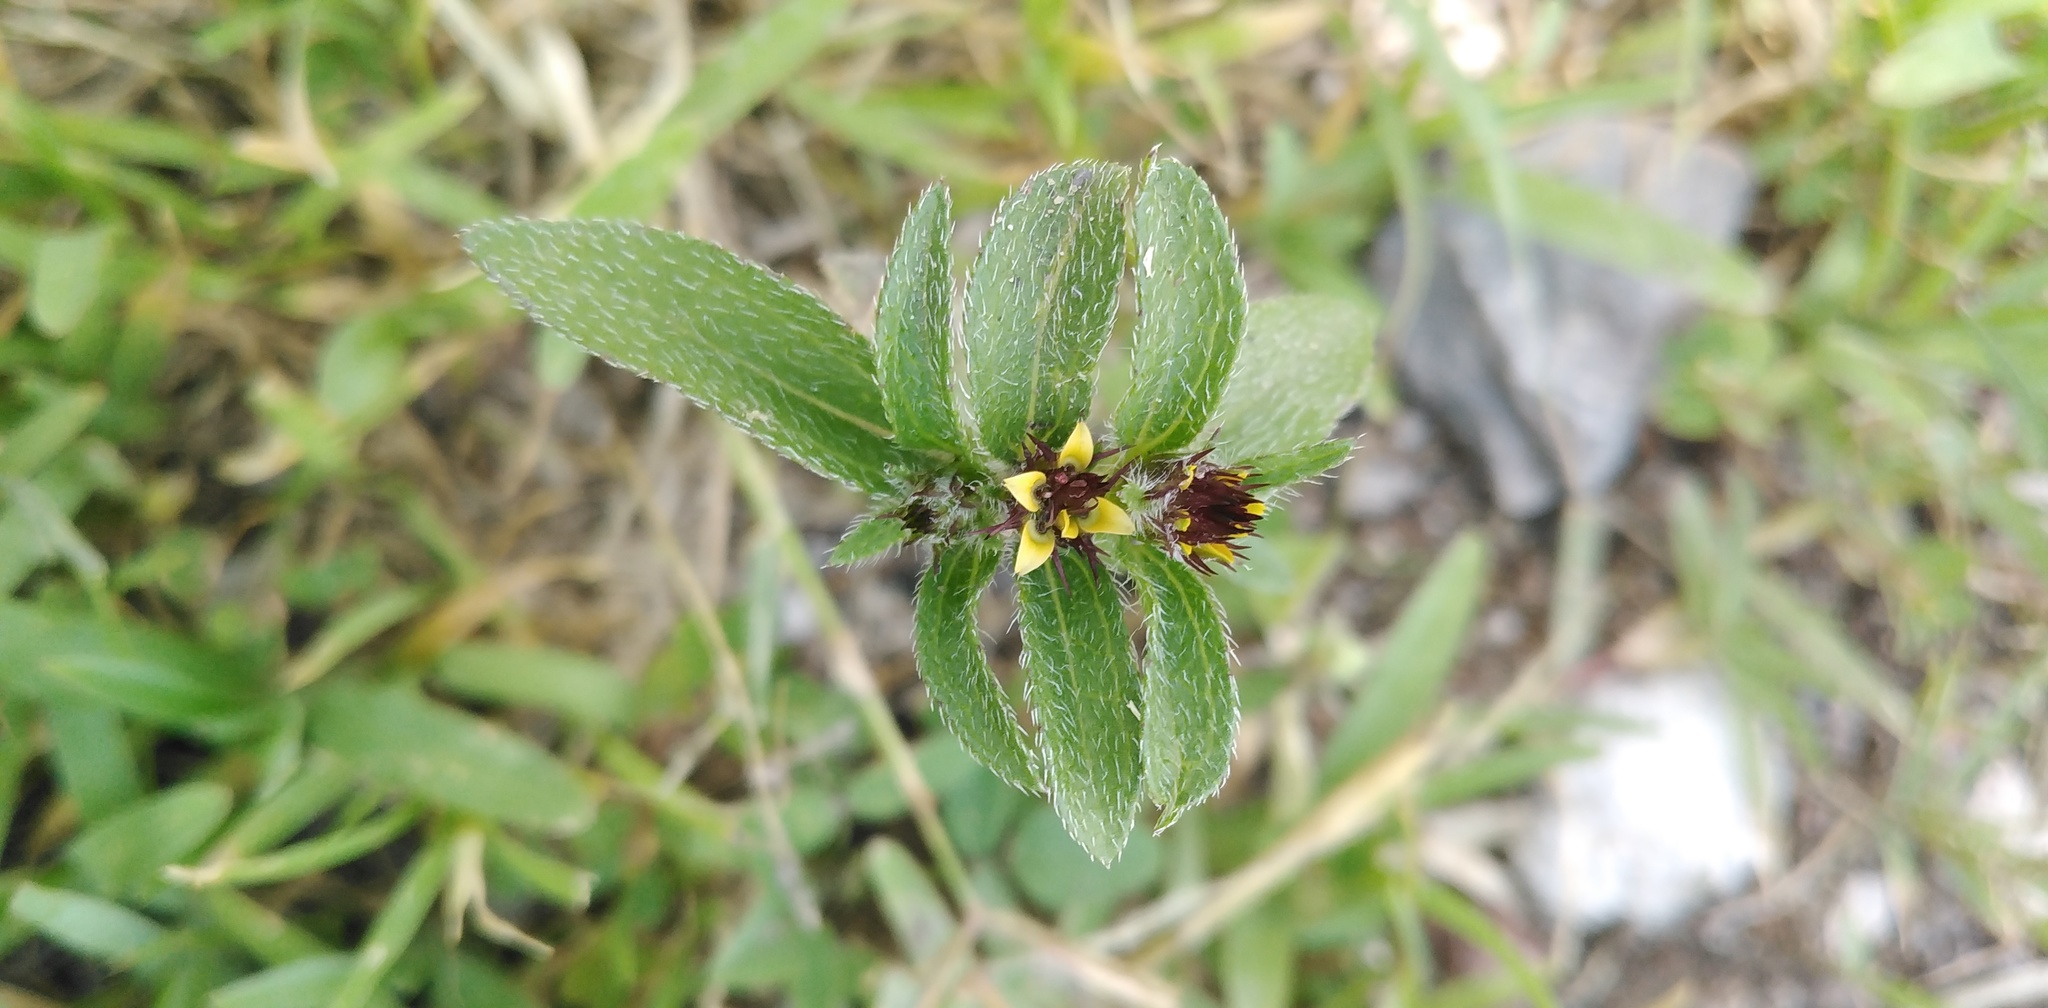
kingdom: Plantae
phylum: Tracheophyta
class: Magnoliopsida
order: Asterales
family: Asteraceae
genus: Sanvitalia
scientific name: Sanvitalia angustifolia
